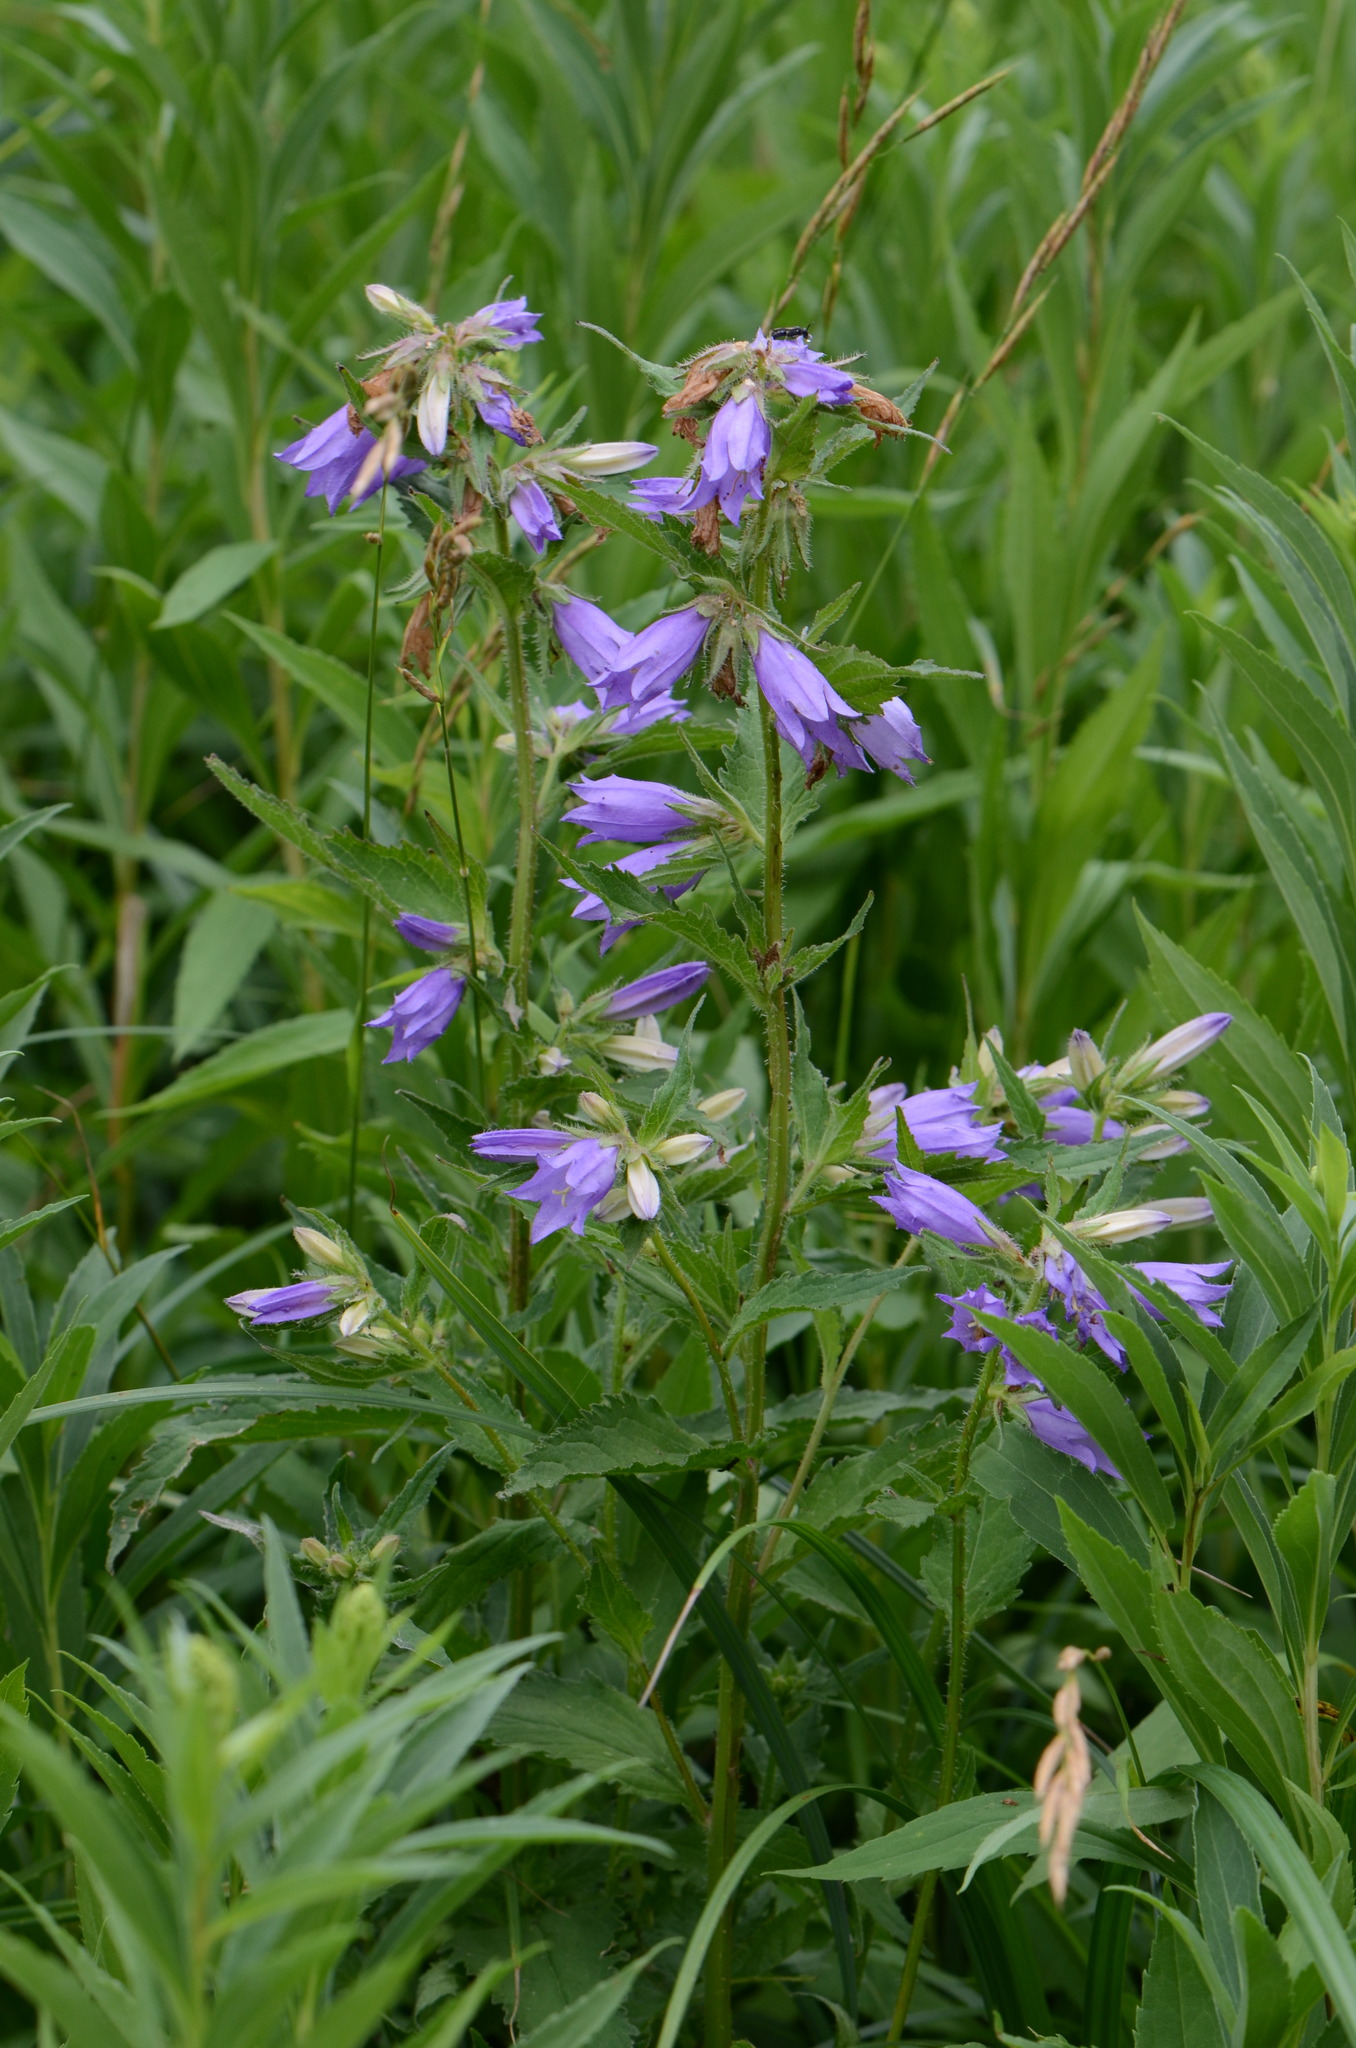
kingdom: Plantae
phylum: Tracheophyta
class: Magnoliopsida
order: Asterales
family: Campanulaceae
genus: Campanula
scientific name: Campanula trachelium
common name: Nettle-leaved bellflower
